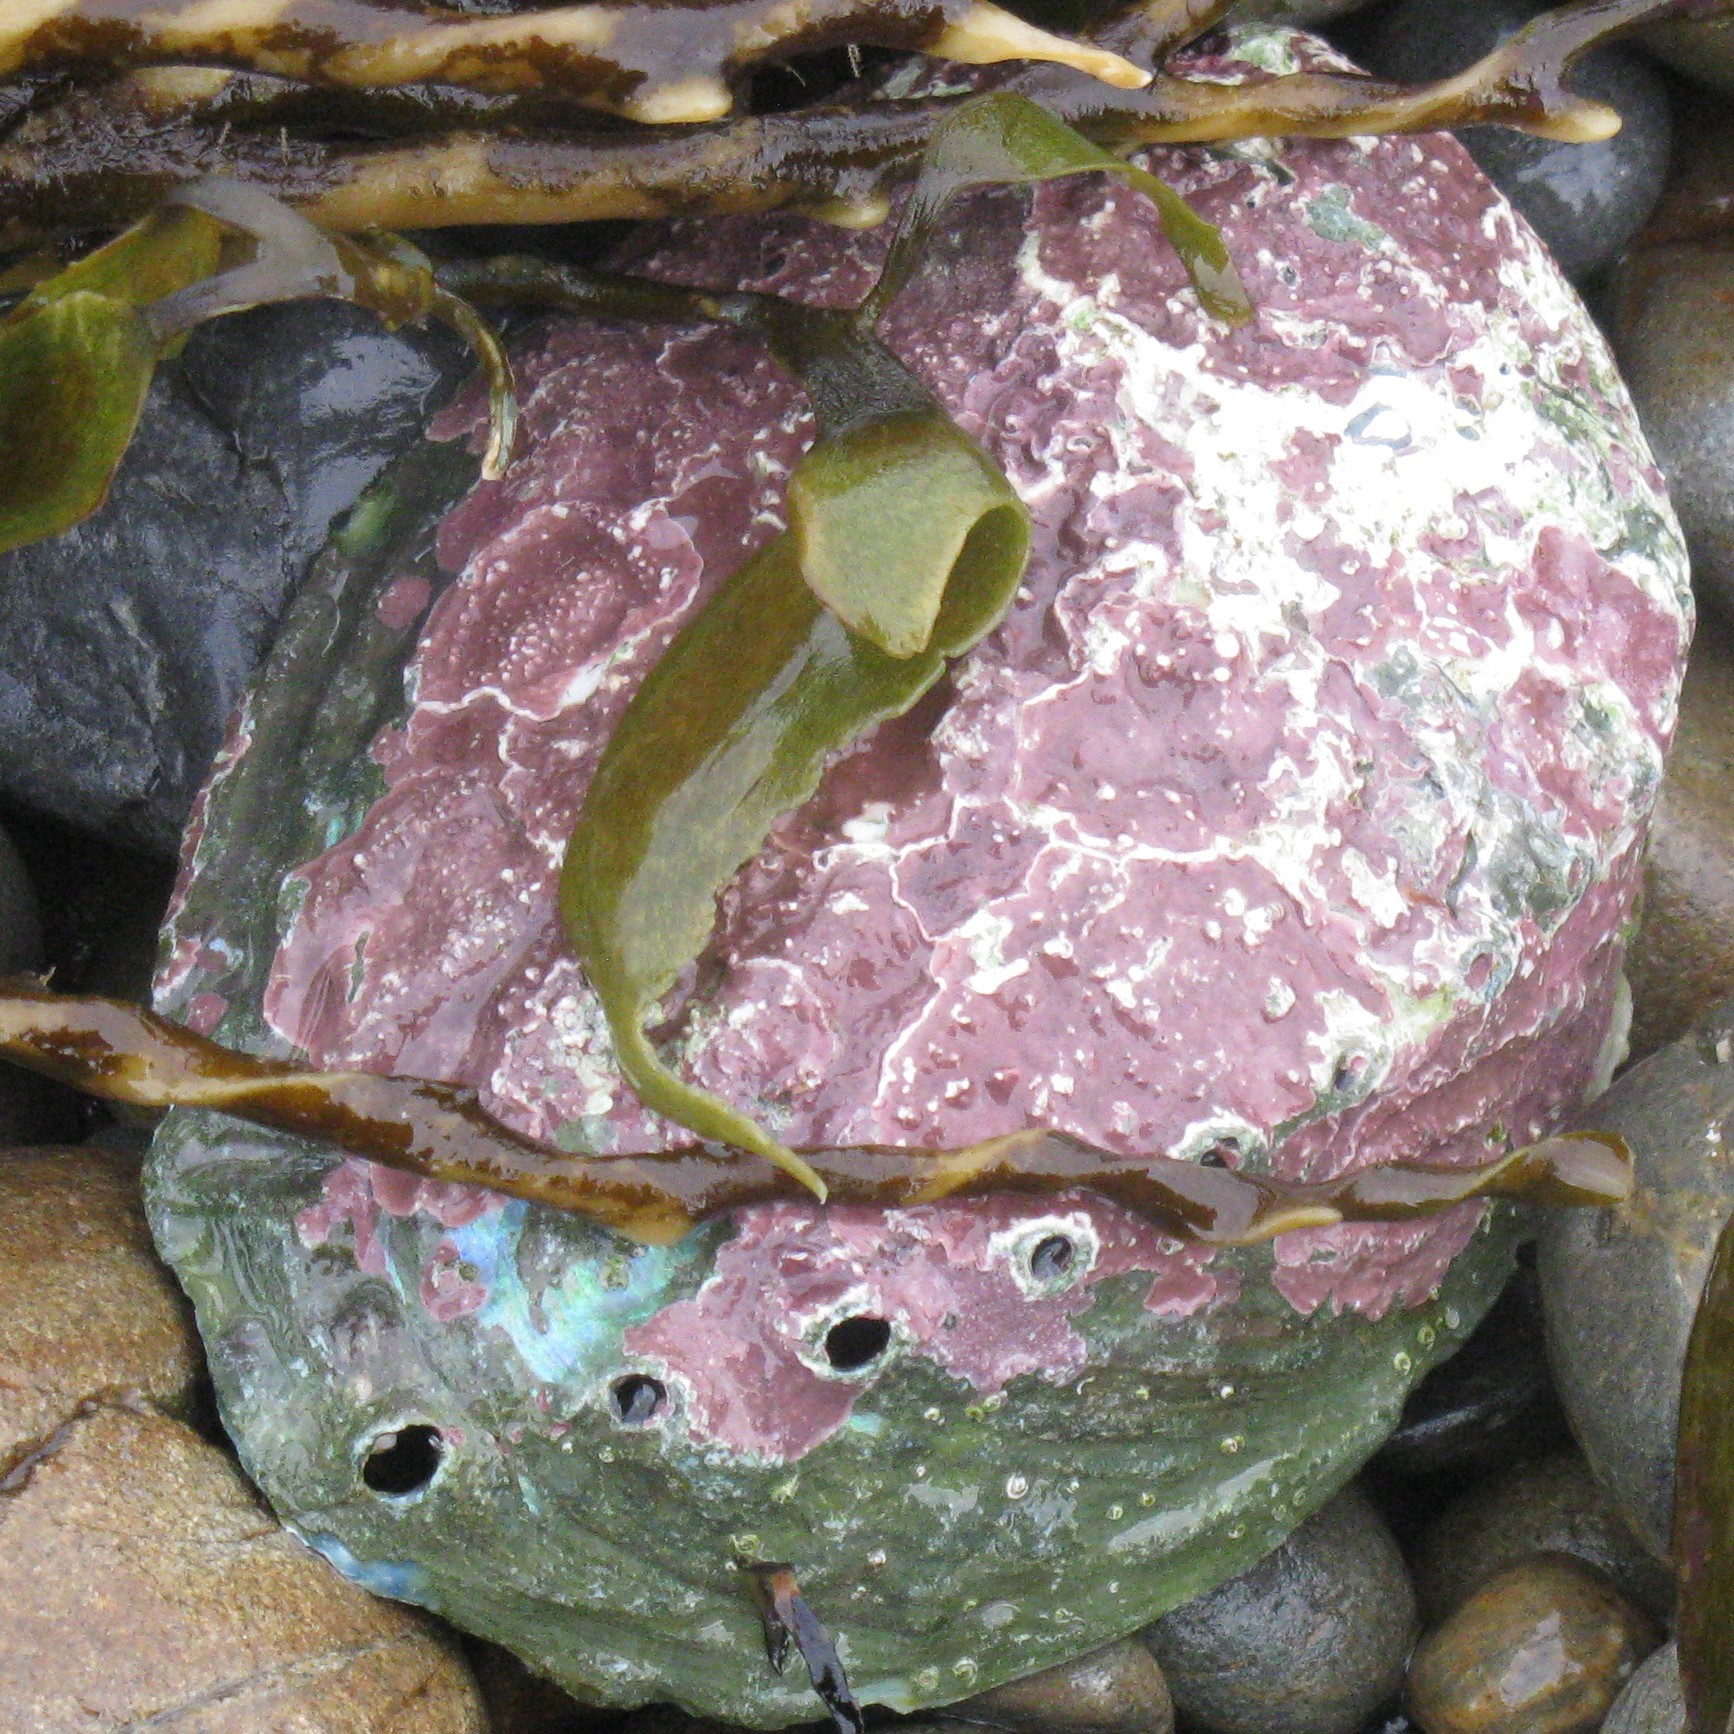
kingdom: Animalia
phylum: Mollusca
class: Gastropoda
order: Lepetellida
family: Haliotidae
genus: Haliotis
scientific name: Haliotis iris
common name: Abalone
